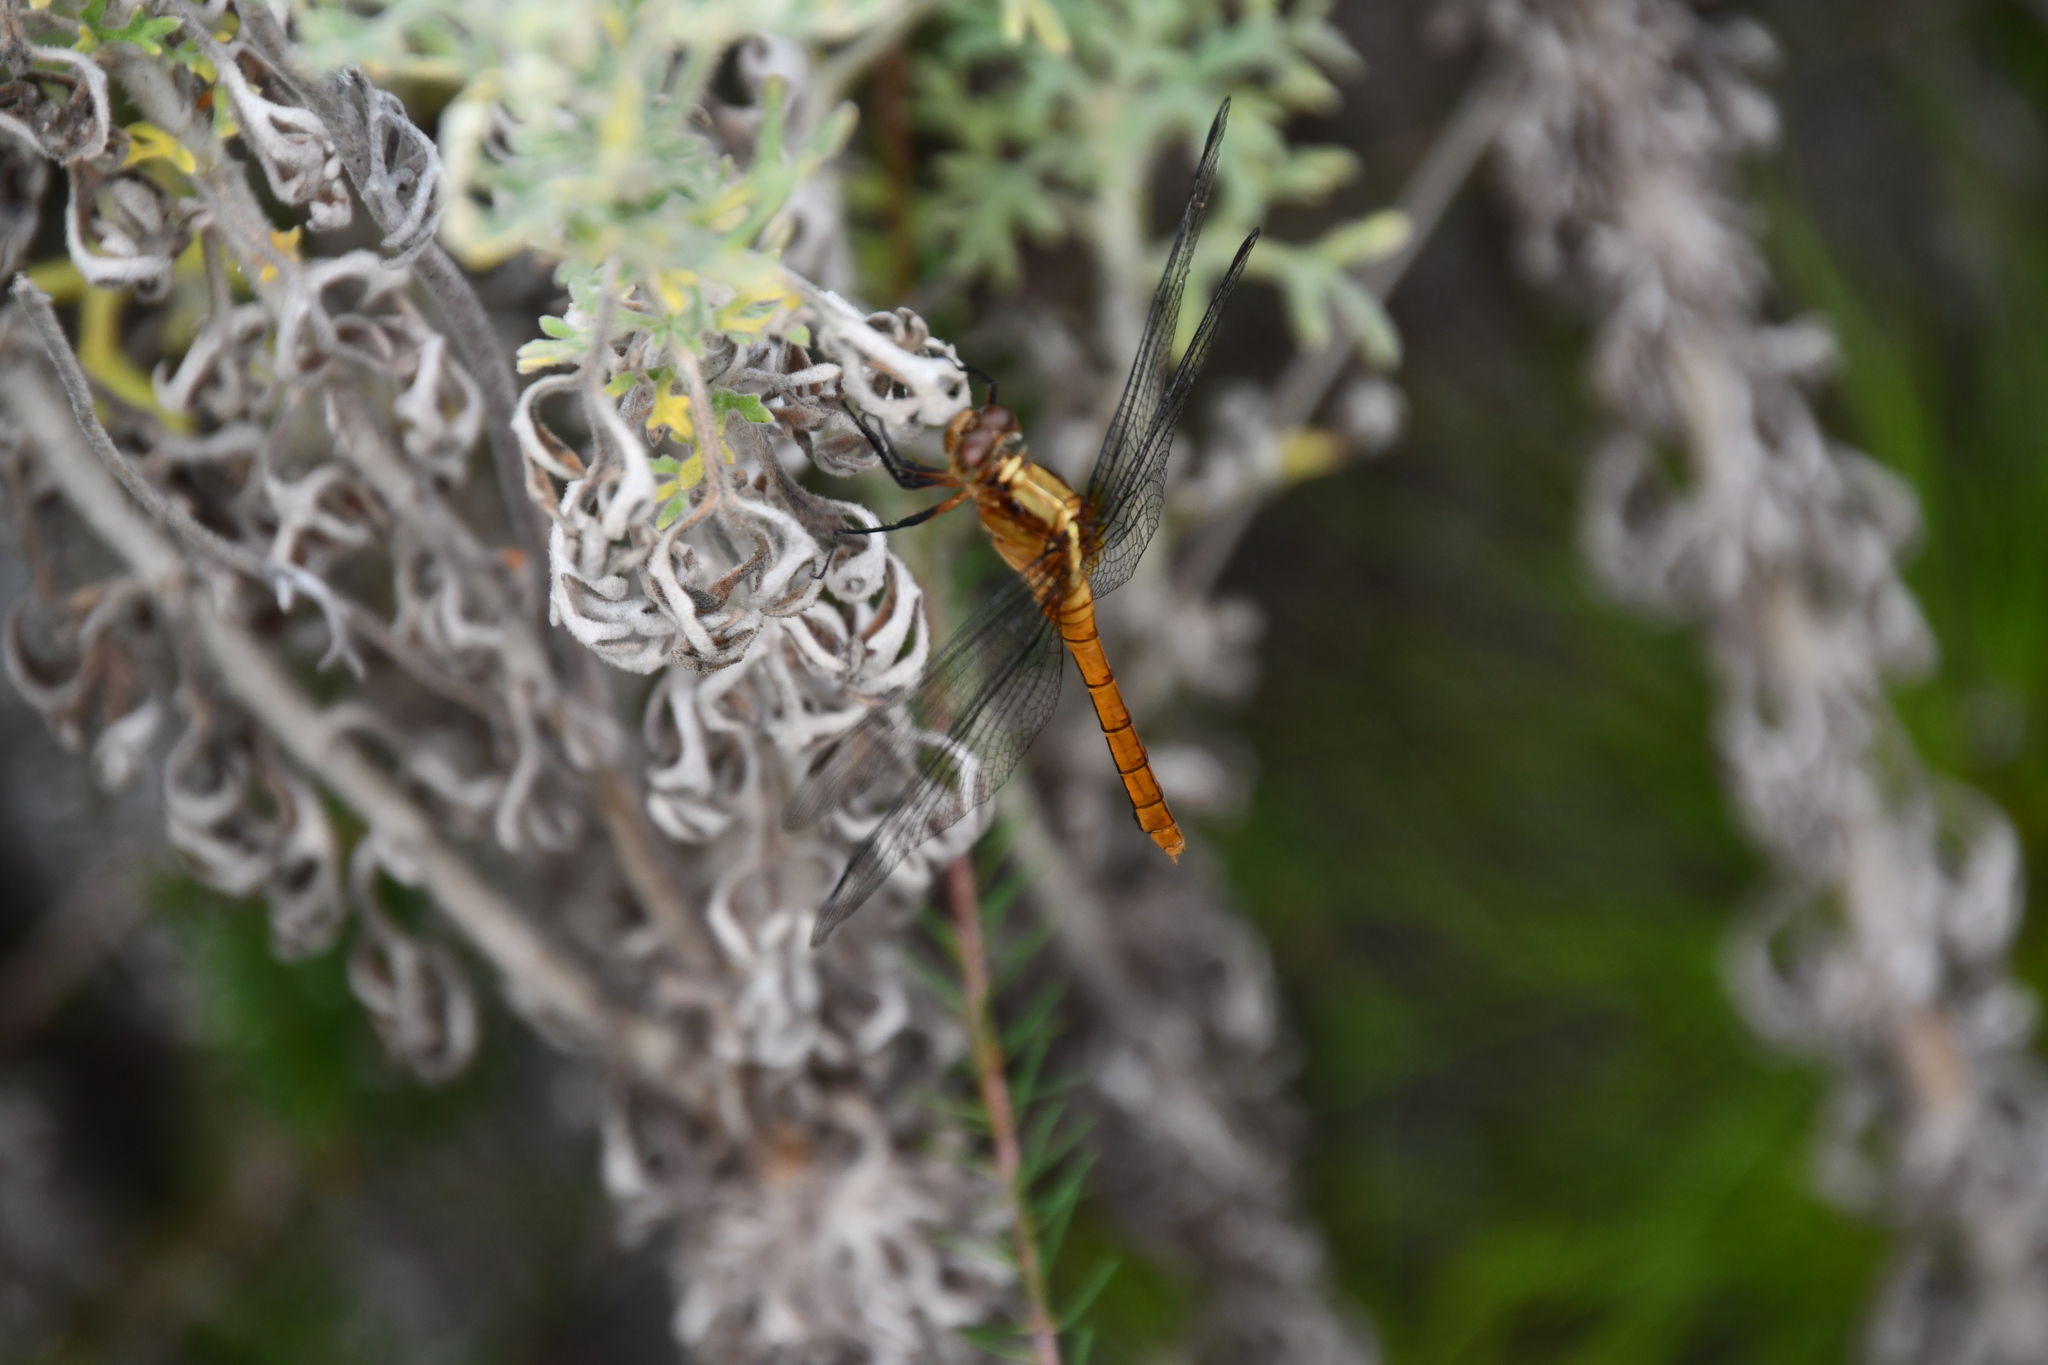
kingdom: Animalia
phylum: Arthropoda
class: Insecta
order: Odonata
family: Libellulidae
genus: Orthetrum
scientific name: Orthetrum villosovittatum
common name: Firery skimmer
